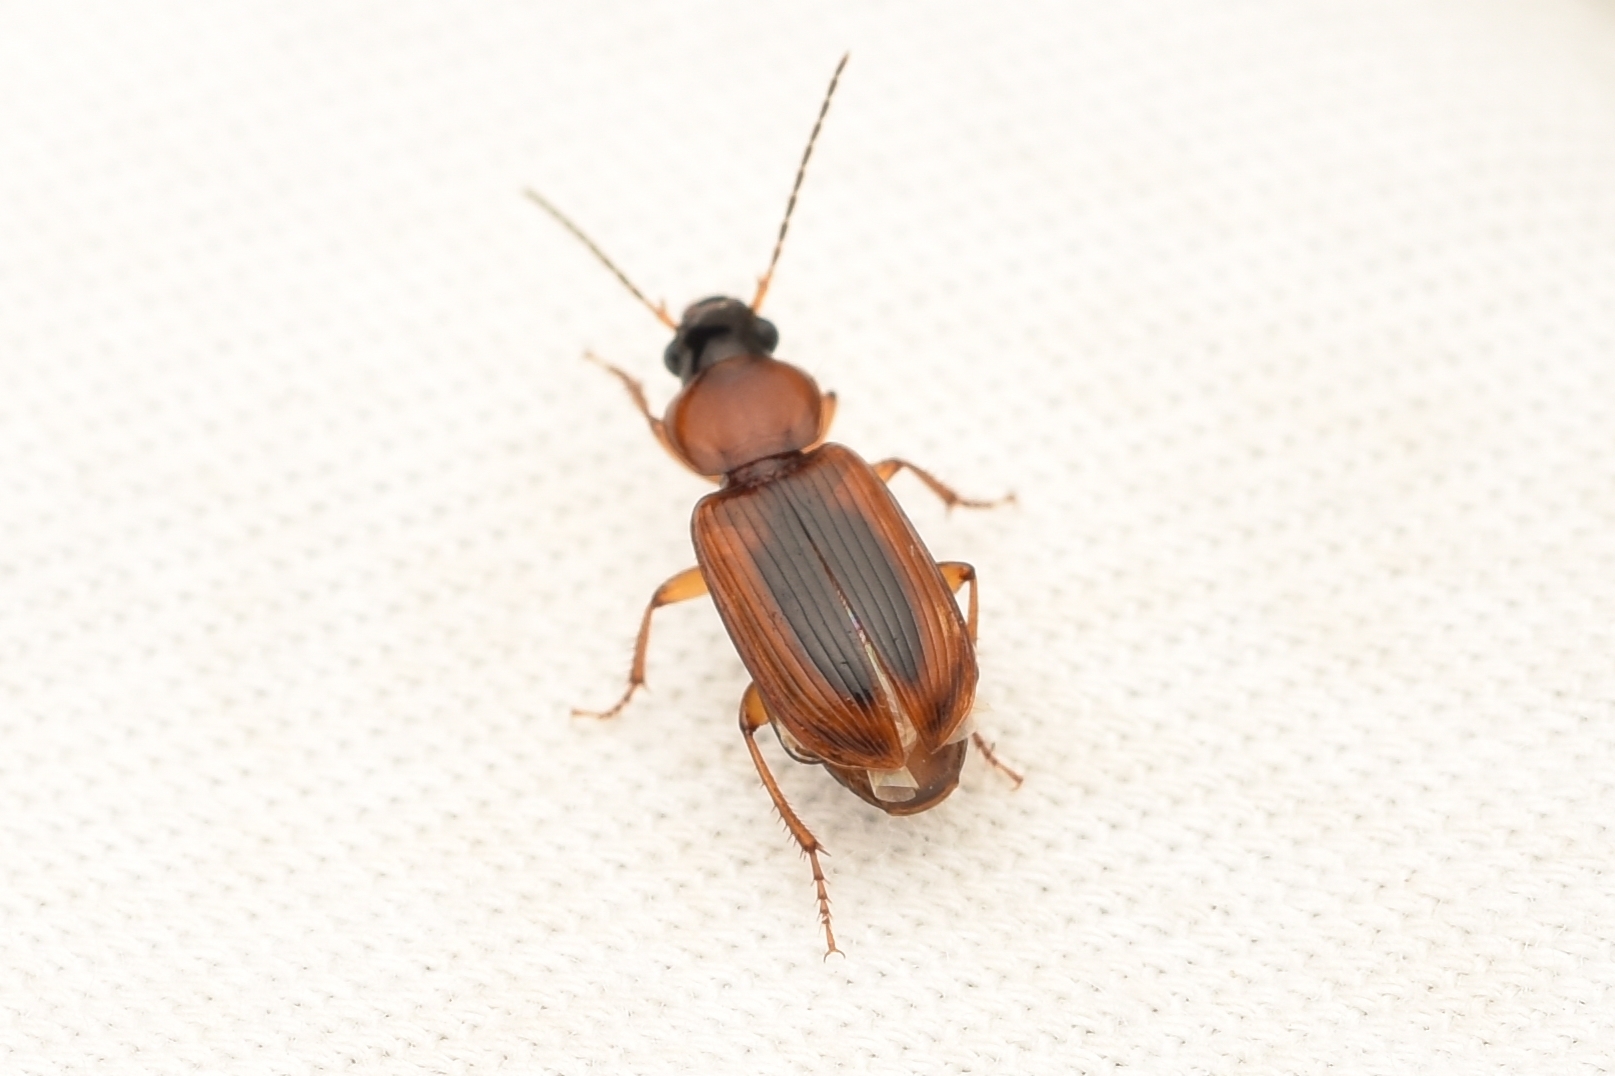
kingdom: Animalia
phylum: Arthropoda
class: Insecta
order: Coleoptera
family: Carabidae
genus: Stenolophus
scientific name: Stenolophus dissimilis
